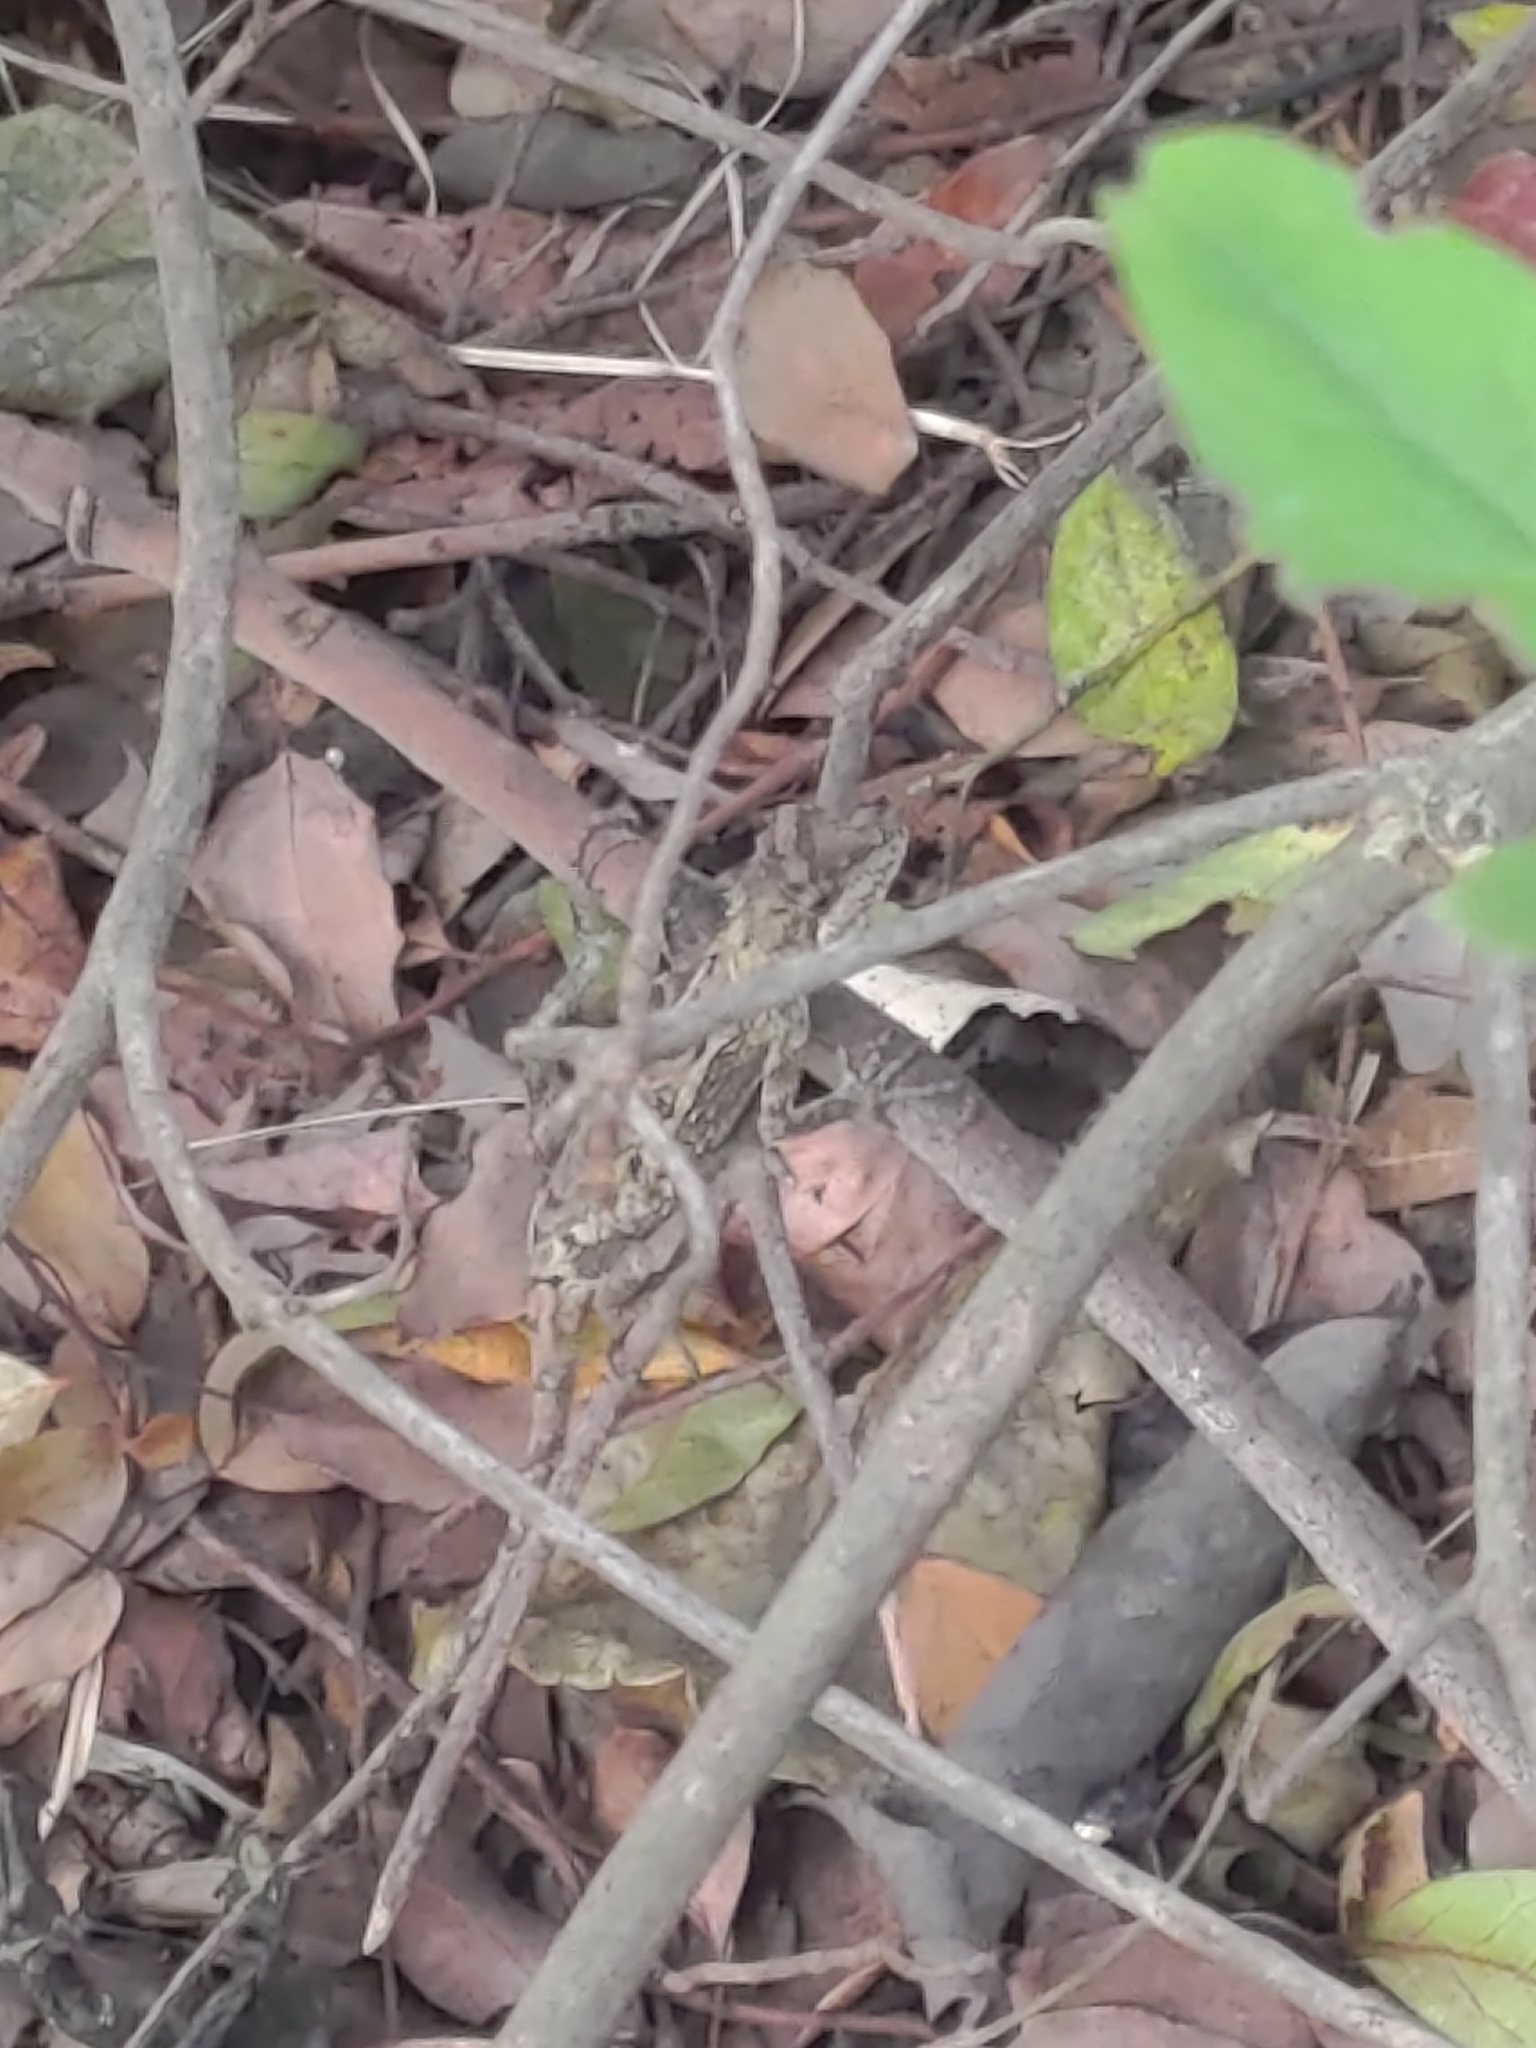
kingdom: Animalia
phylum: Chordata
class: Squamata
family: Agamidae
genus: Diploderma
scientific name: Diploderma swinhonis
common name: Taiwan japalure
